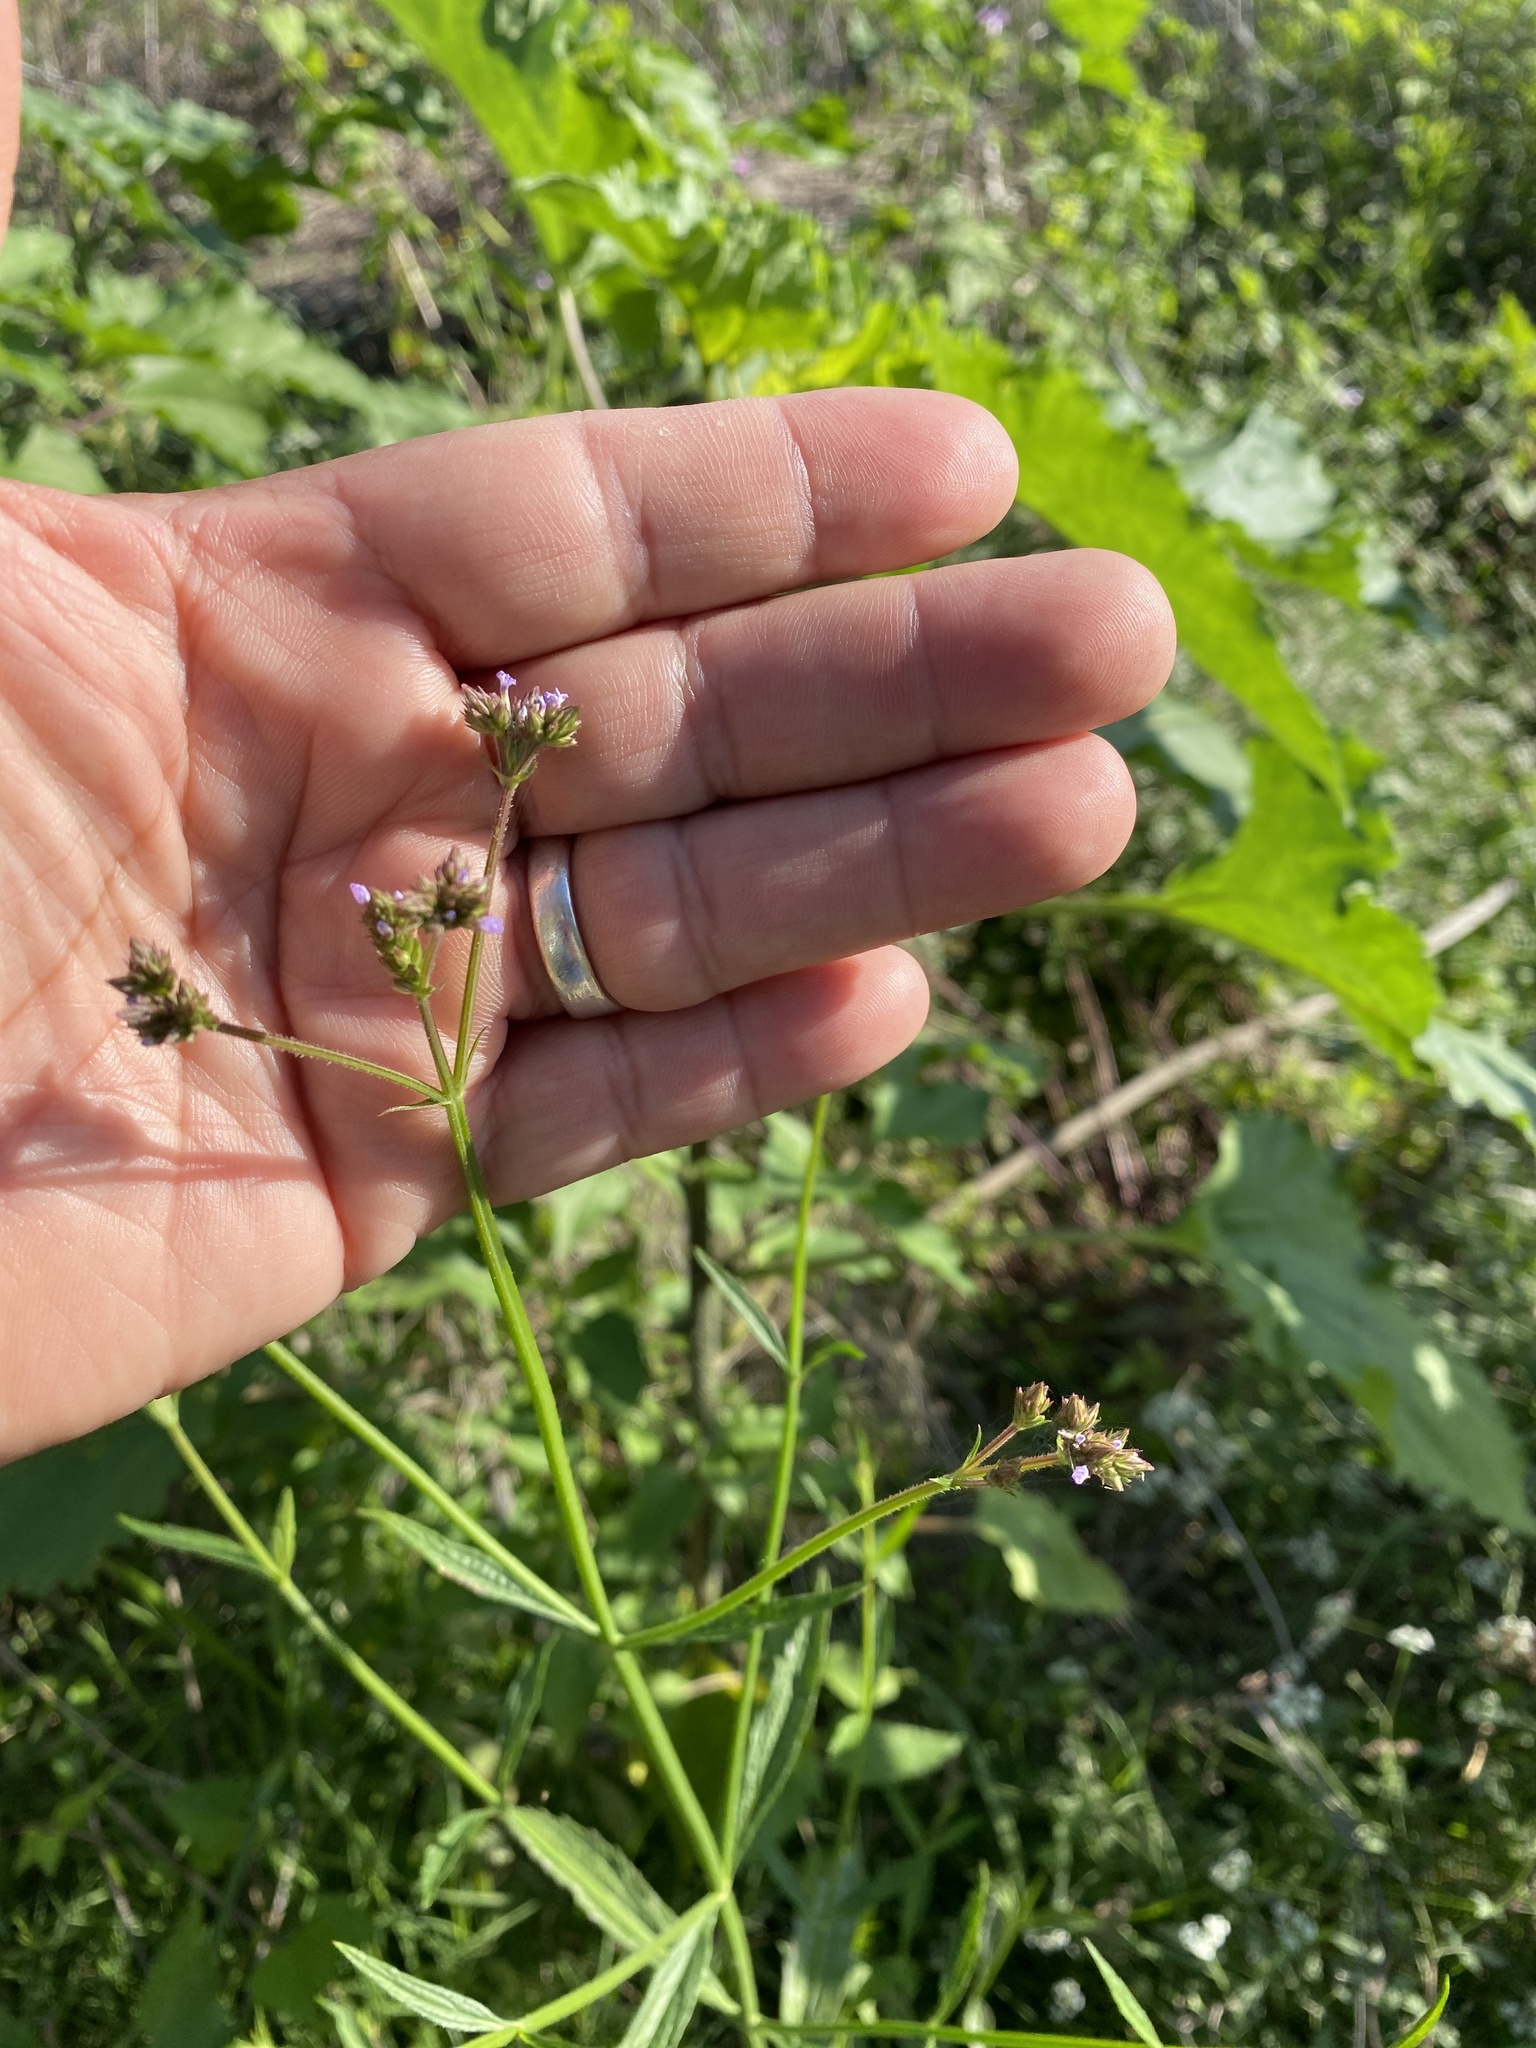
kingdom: Plantae
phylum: Tracheophyta
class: Magnoliopsida
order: Lamiales
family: Verbenaceae
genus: Verbena
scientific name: Verbena brasiliensis
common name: Brazilian vervain
